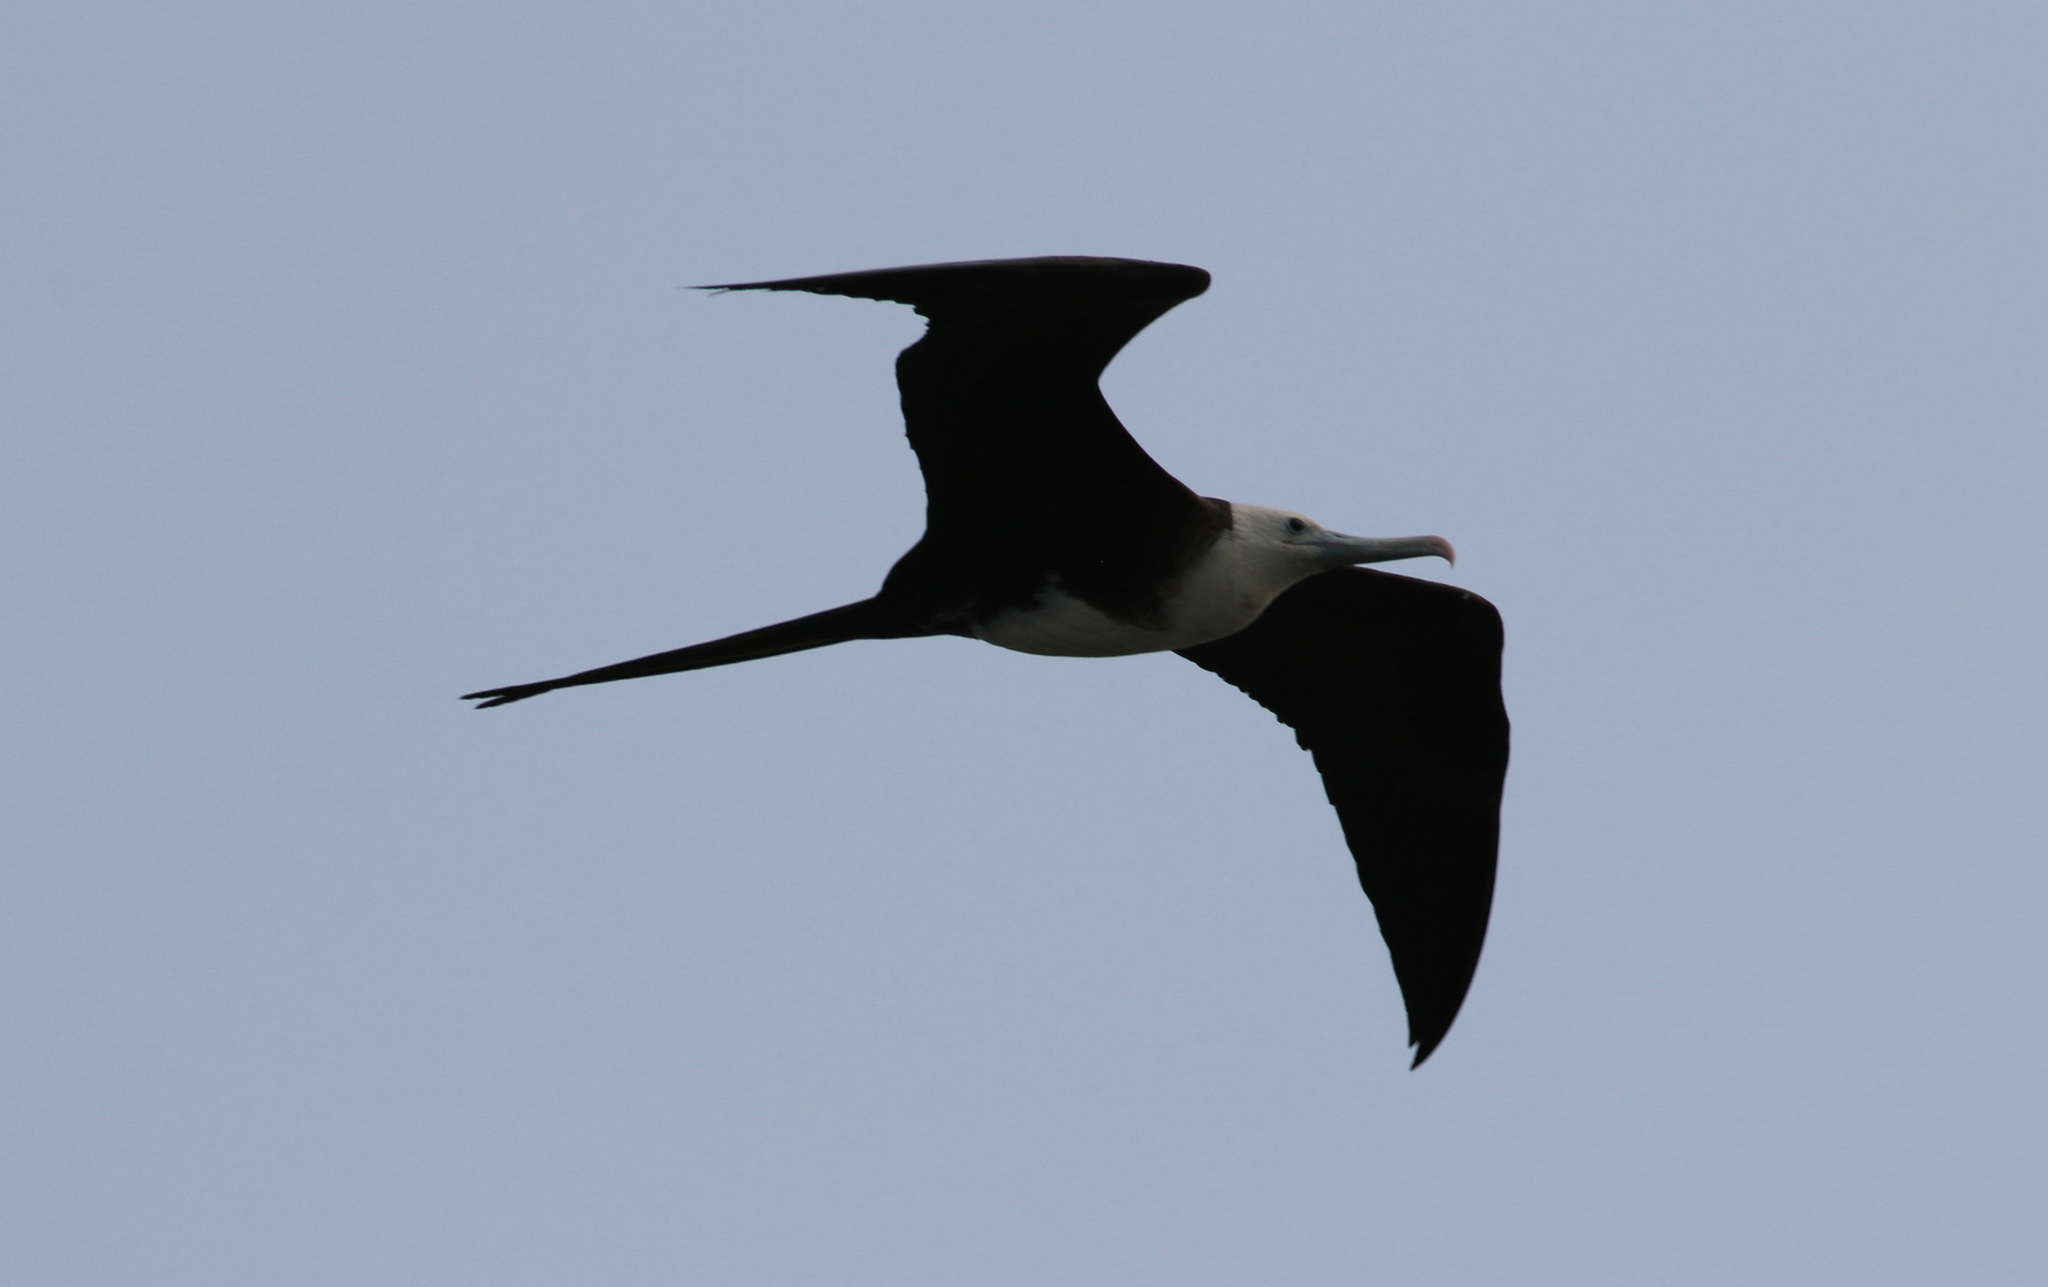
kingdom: Animalia
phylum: Chordata
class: Aves
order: Suliformes
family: Fregatidae
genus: Fregata
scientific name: Fregata magnificens
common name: Magnificent frigatebird
